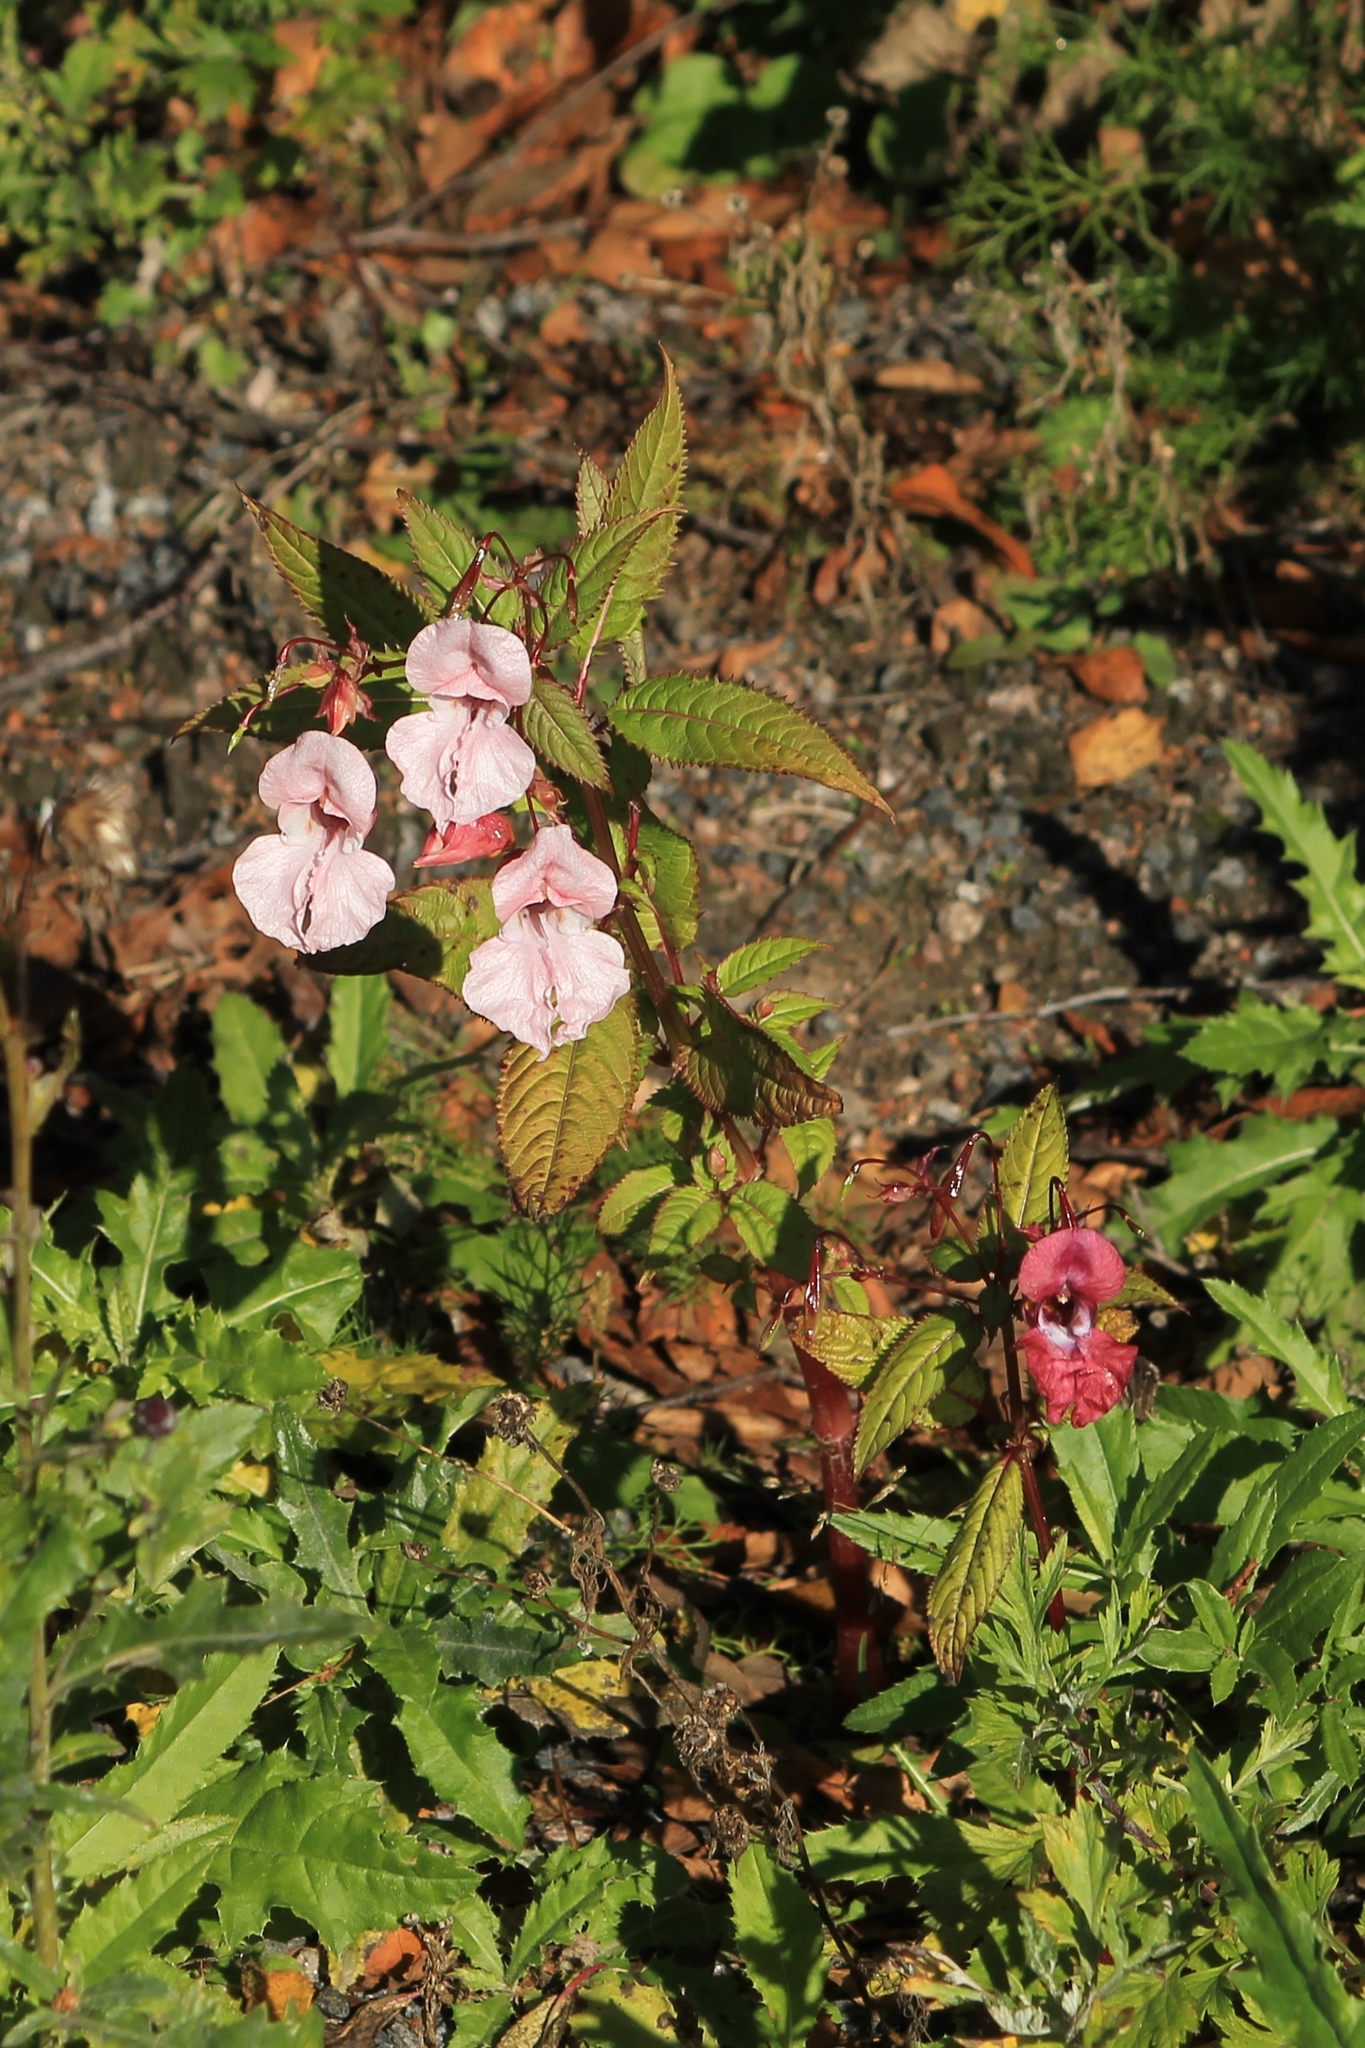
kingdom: Plantae
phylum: Tracheophyta
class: Magnoliopsida
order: Ericales
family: Balsaminaceae
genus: Impatiens
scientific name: Impatiens glandulifera
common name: Himalayan balsam
